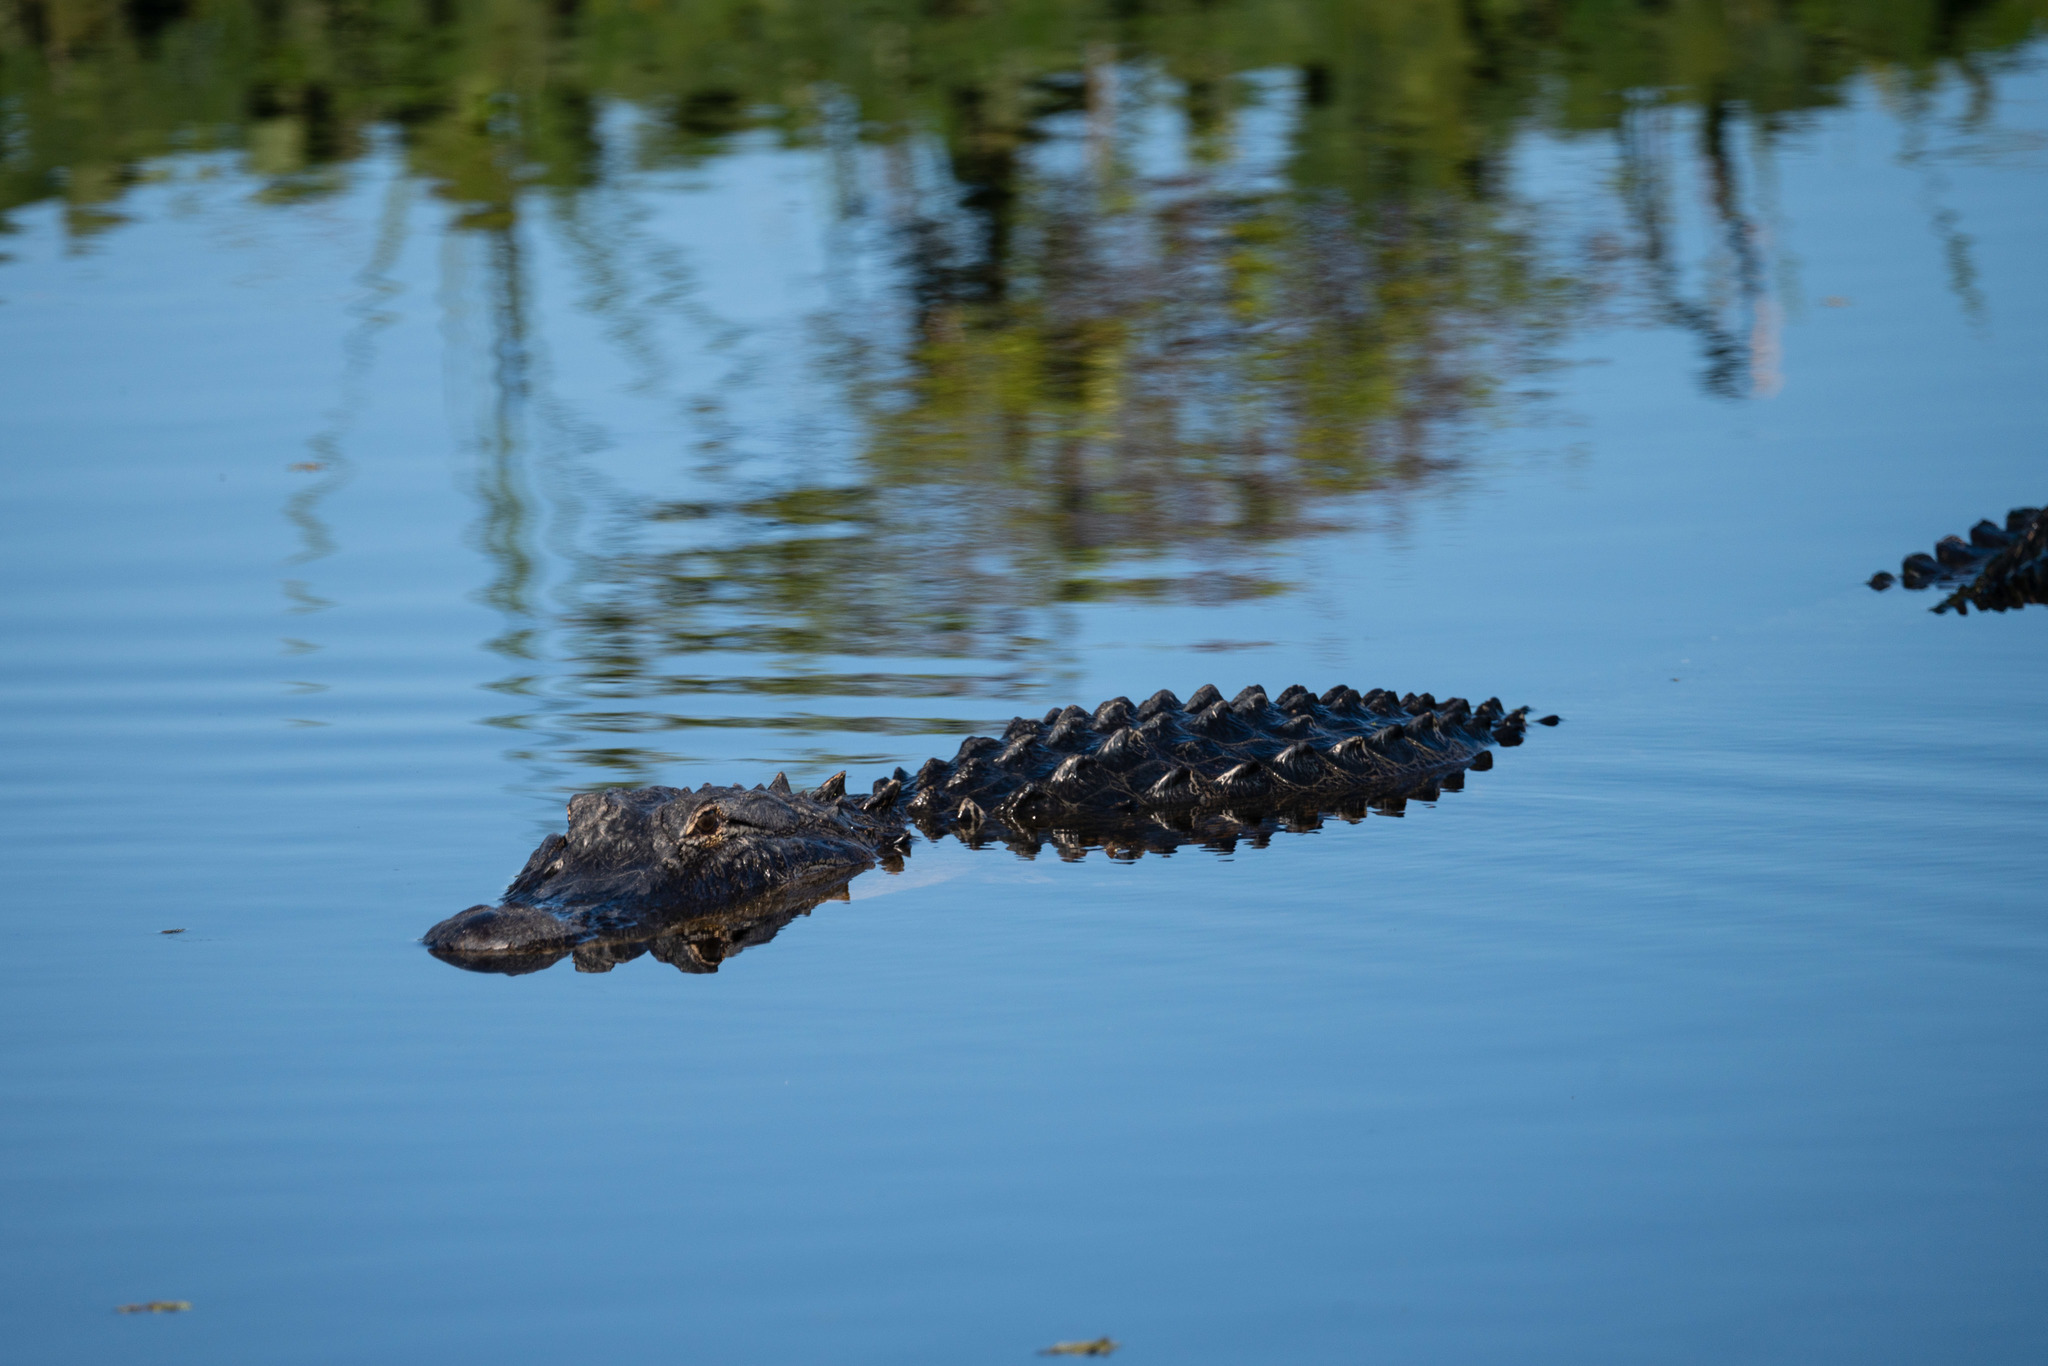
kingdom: Animalia
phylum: Chordata
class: Crocodylia
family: Alligatoridae
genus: Alligator
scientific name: Alligator mississippiensis
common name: American alligator
